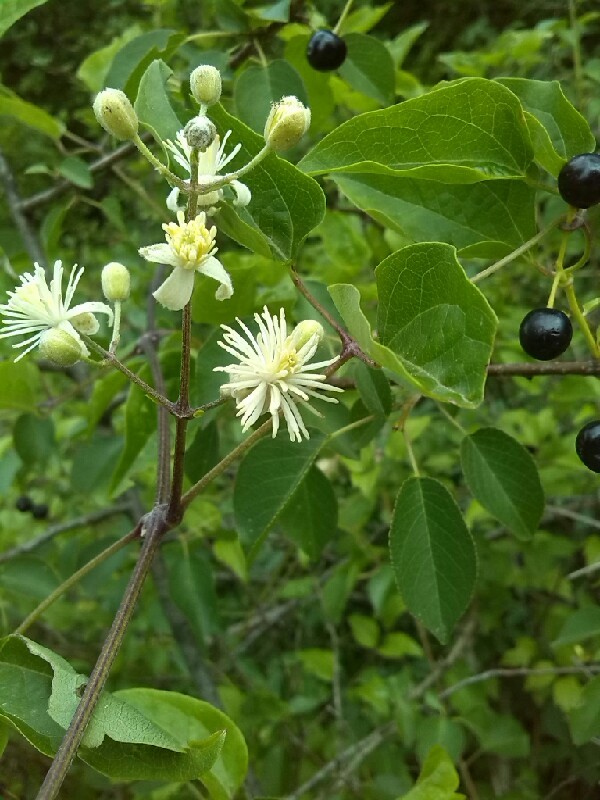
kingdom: Plantae
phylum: Tracheophyta
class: Magnoliopsida
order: Rosales
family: Rosaceae
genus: Prunus
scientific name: Prunus mahaleb
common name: Mahaleb cherry
